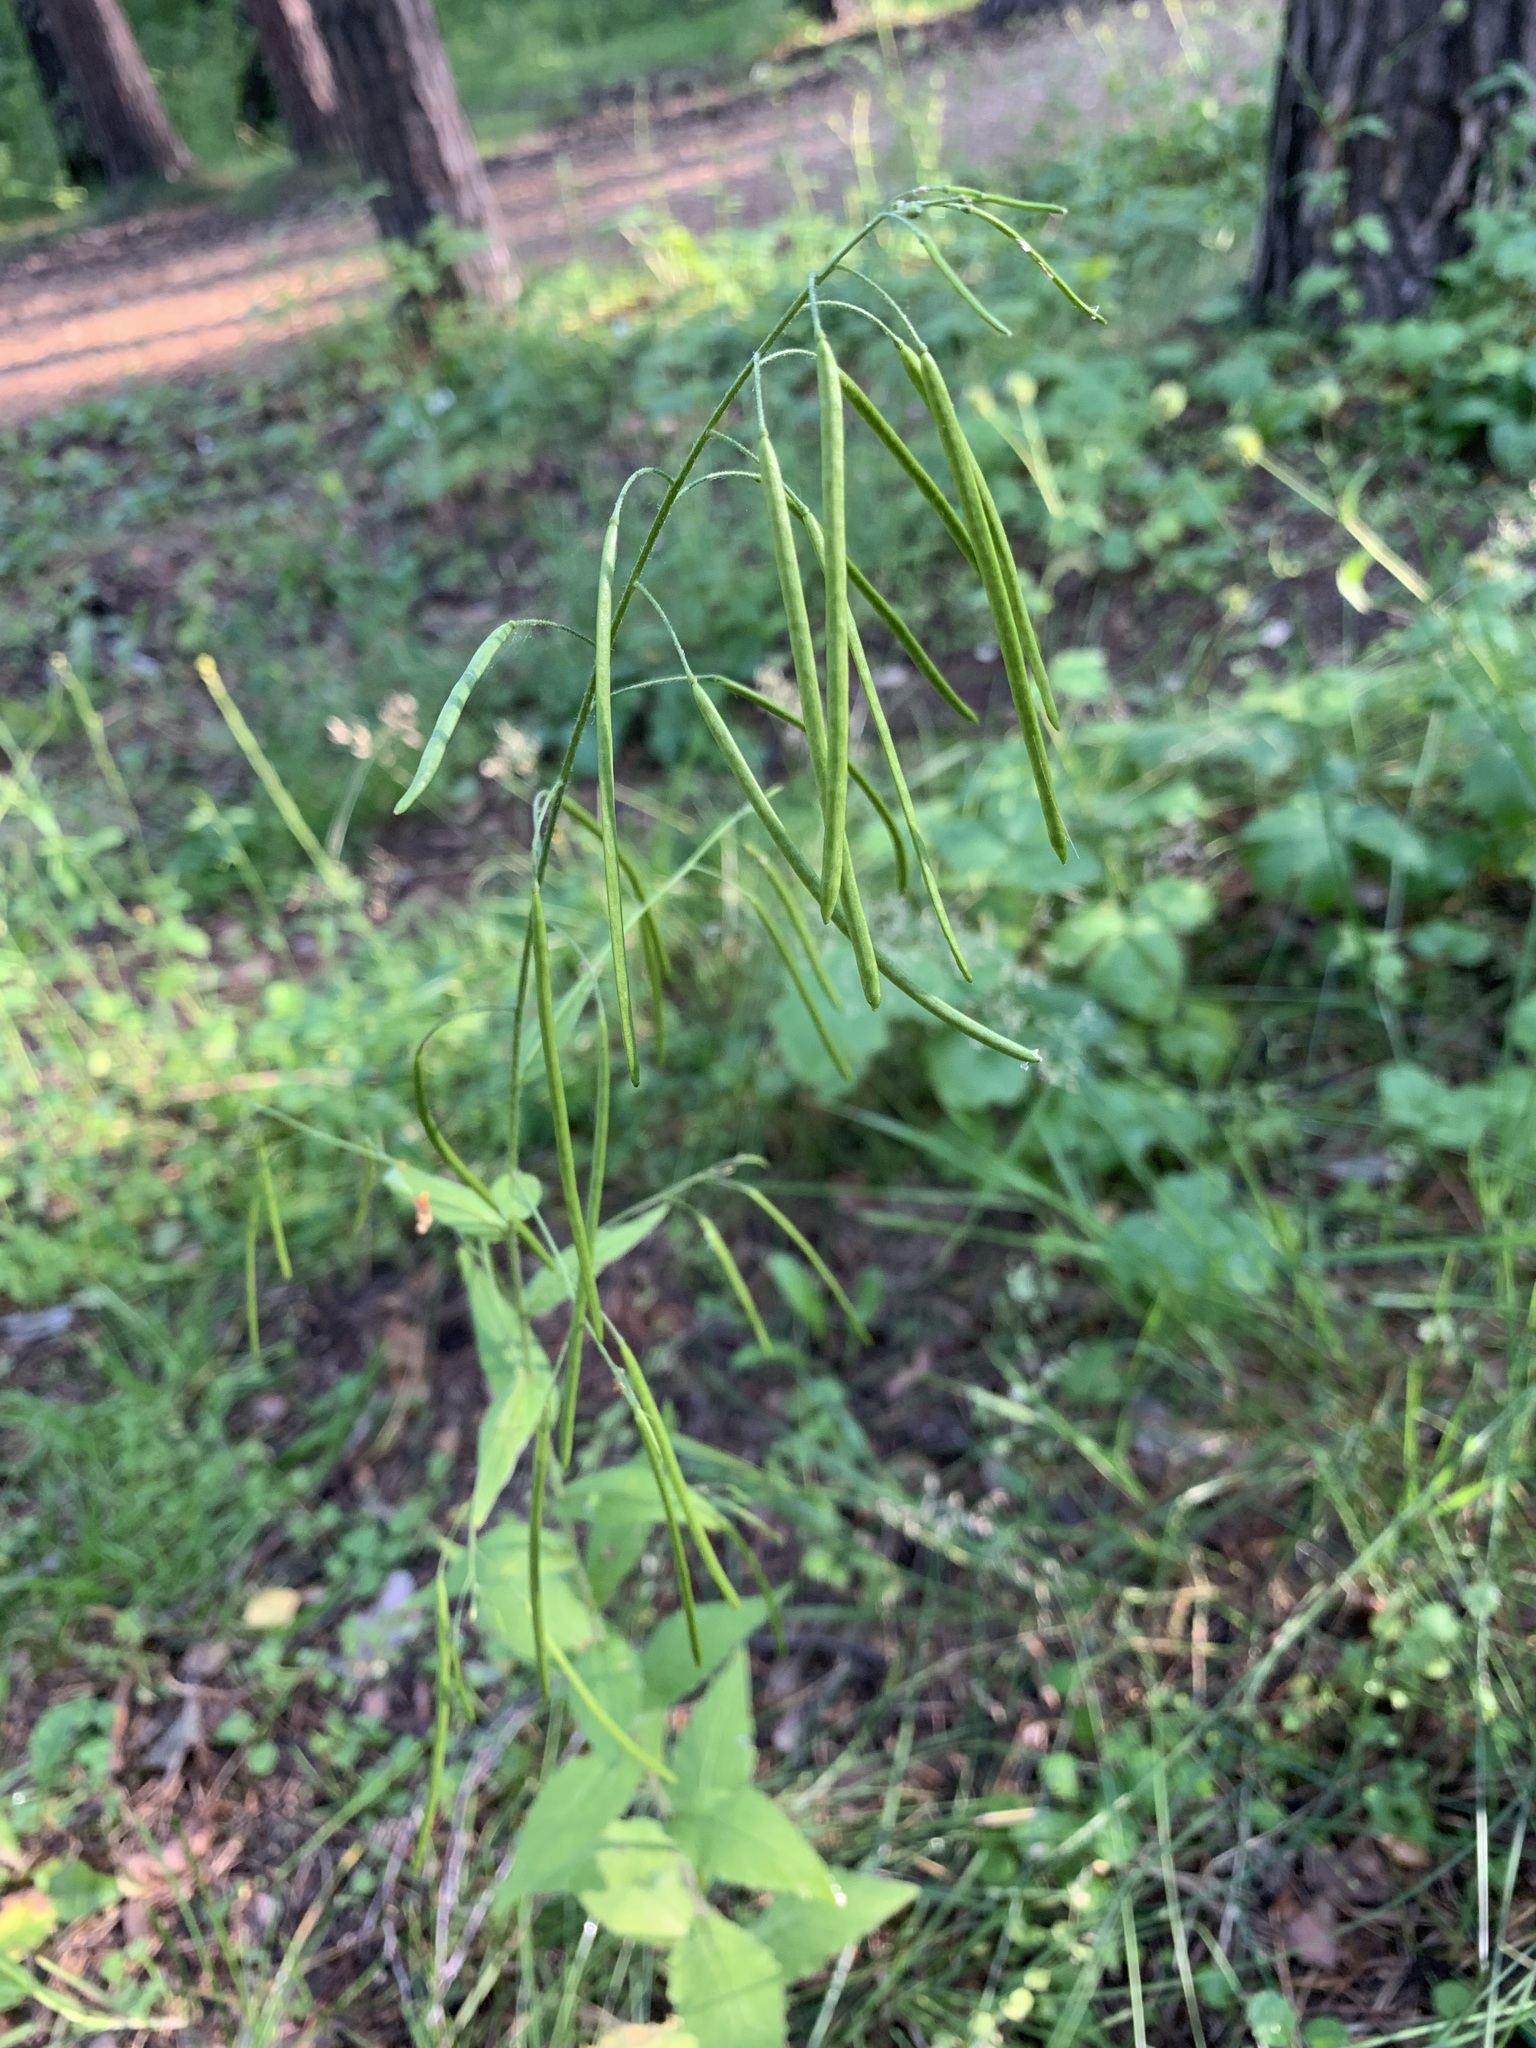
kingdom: Plantae
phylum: Tracheophyta
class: Magnoliopsida
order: Brassicales
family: Brassicaceae
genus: Catolobus
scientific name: Catolobus pendulus
